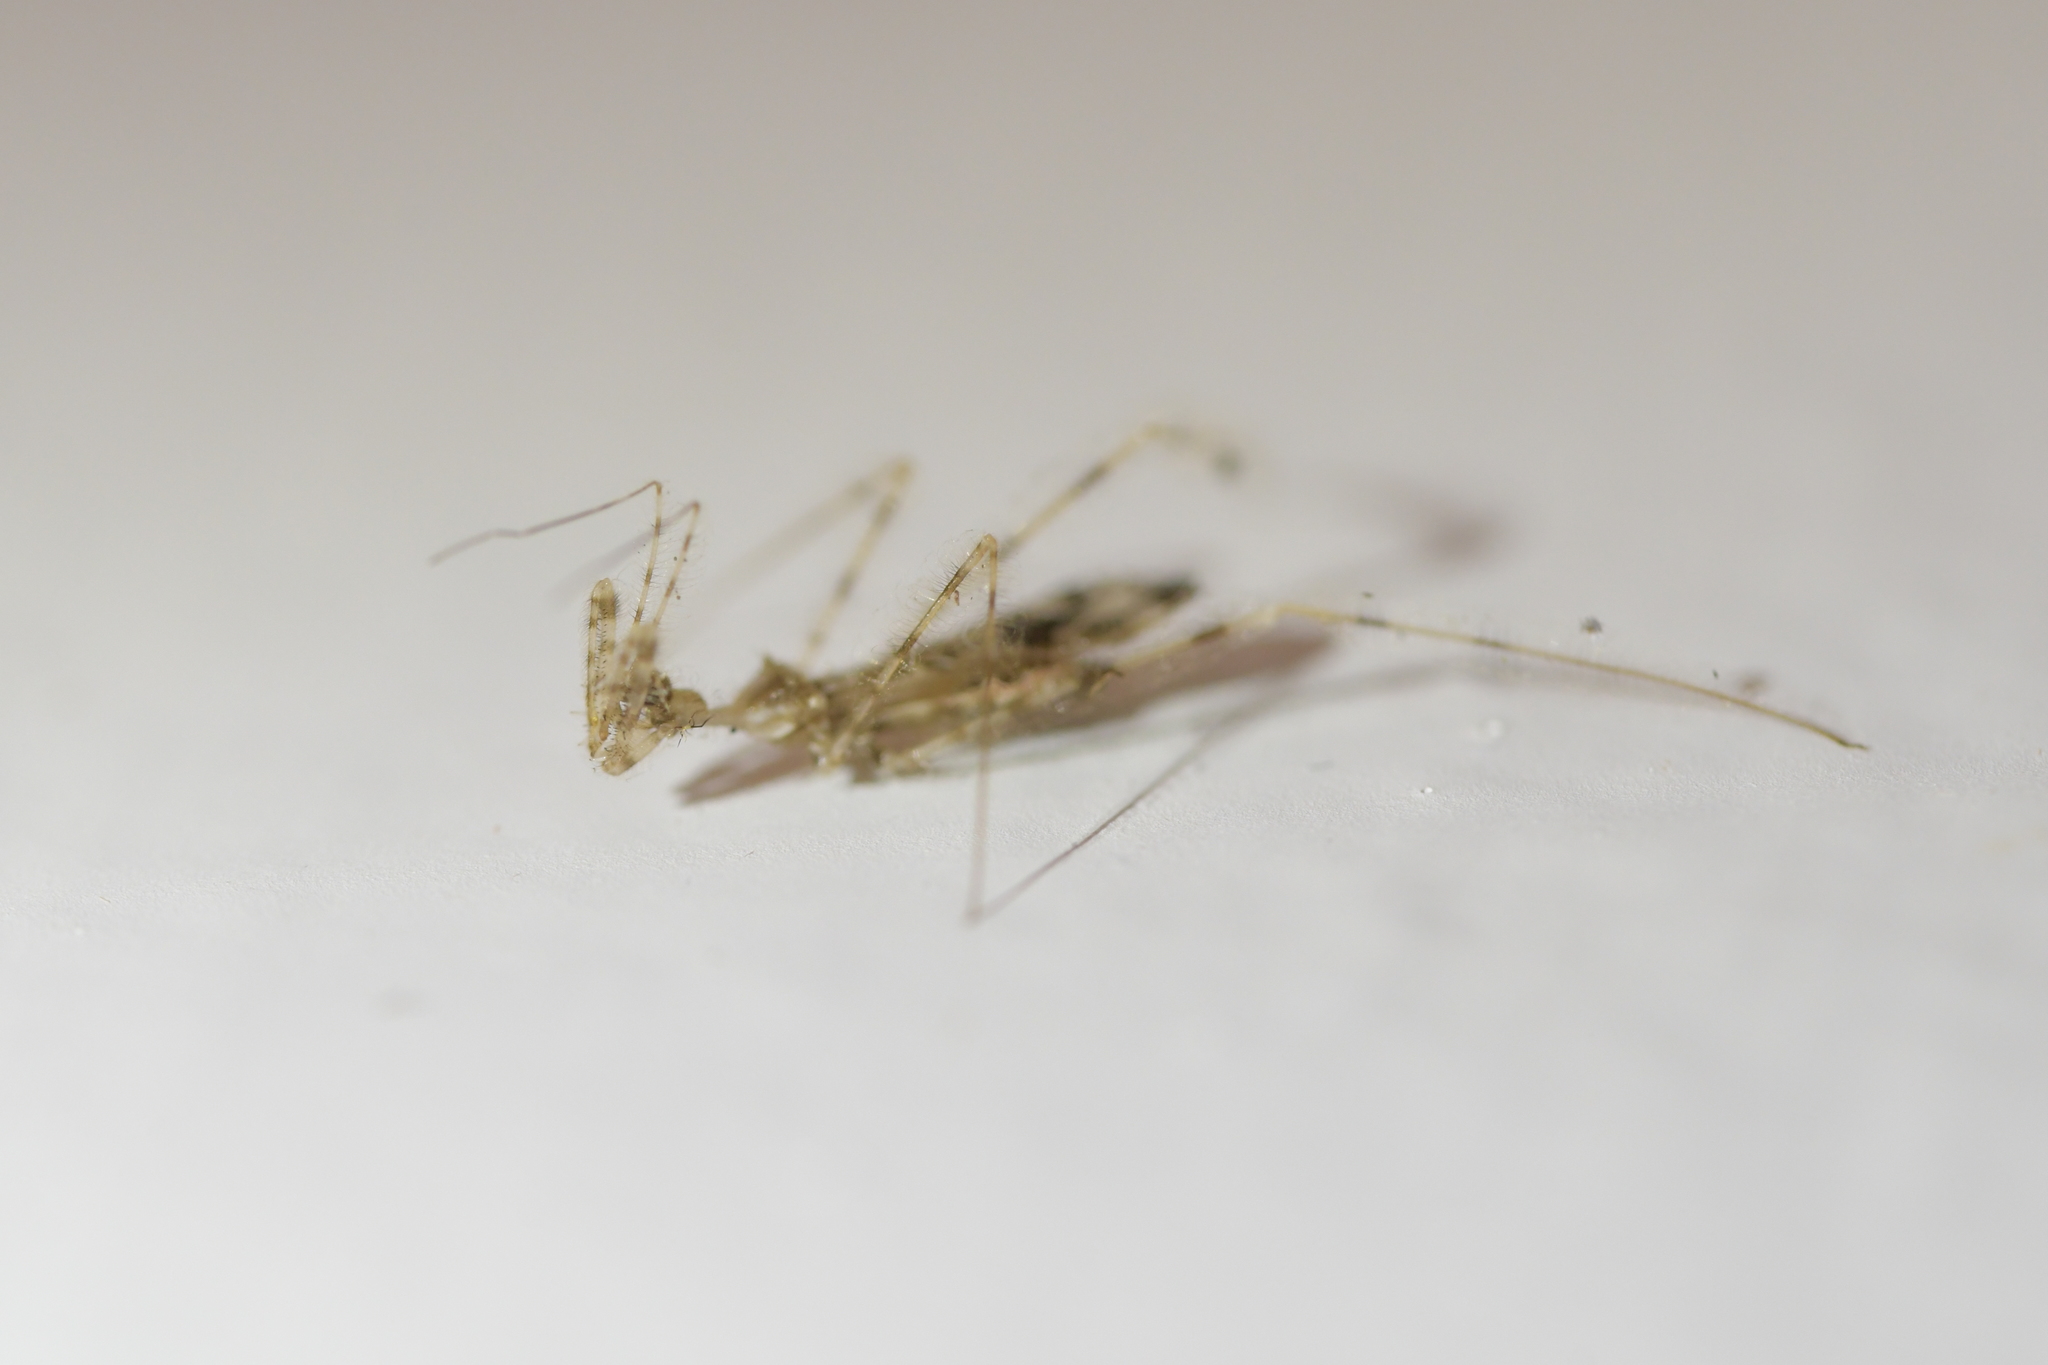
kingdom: Animalia
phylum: Arthropoda
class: Insecta
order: Hemiptera
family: Reduviidae
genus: Stenolemus
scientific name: Stenolemus fraterculus
